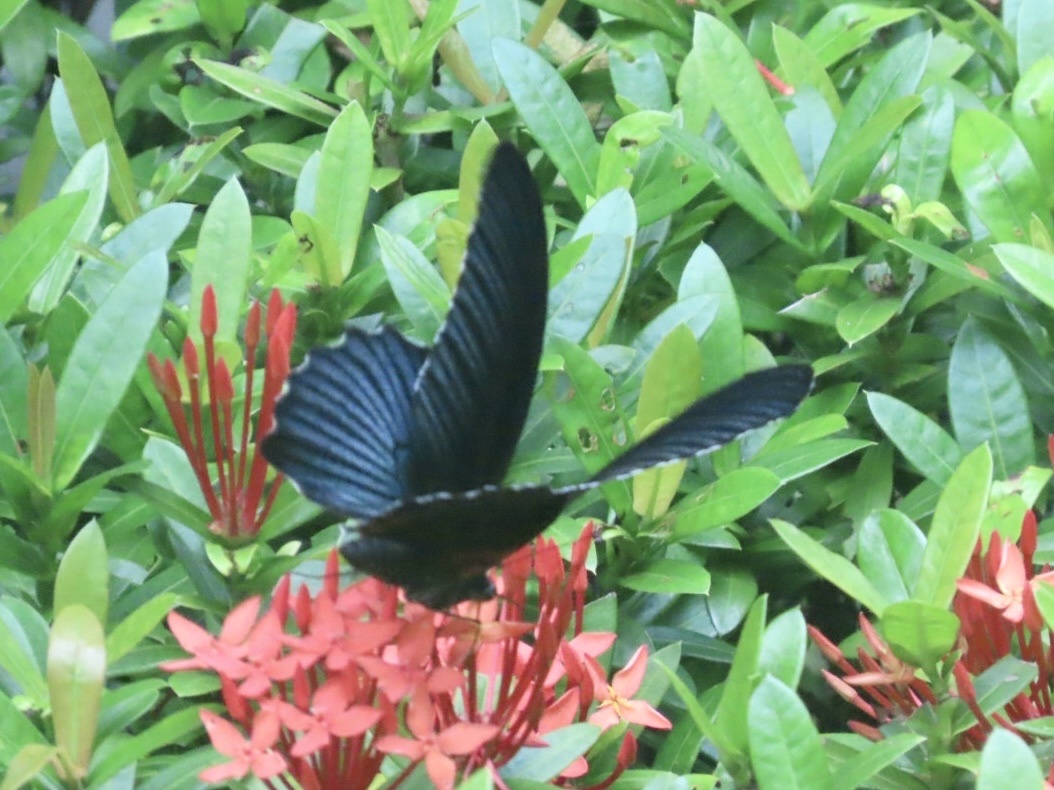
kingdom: Animalia
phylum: Arthropoda
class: Insecta
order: Lepidoptera
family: Papilionidae
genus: Papilio
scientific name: Papilio memnon
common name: Great mormon
